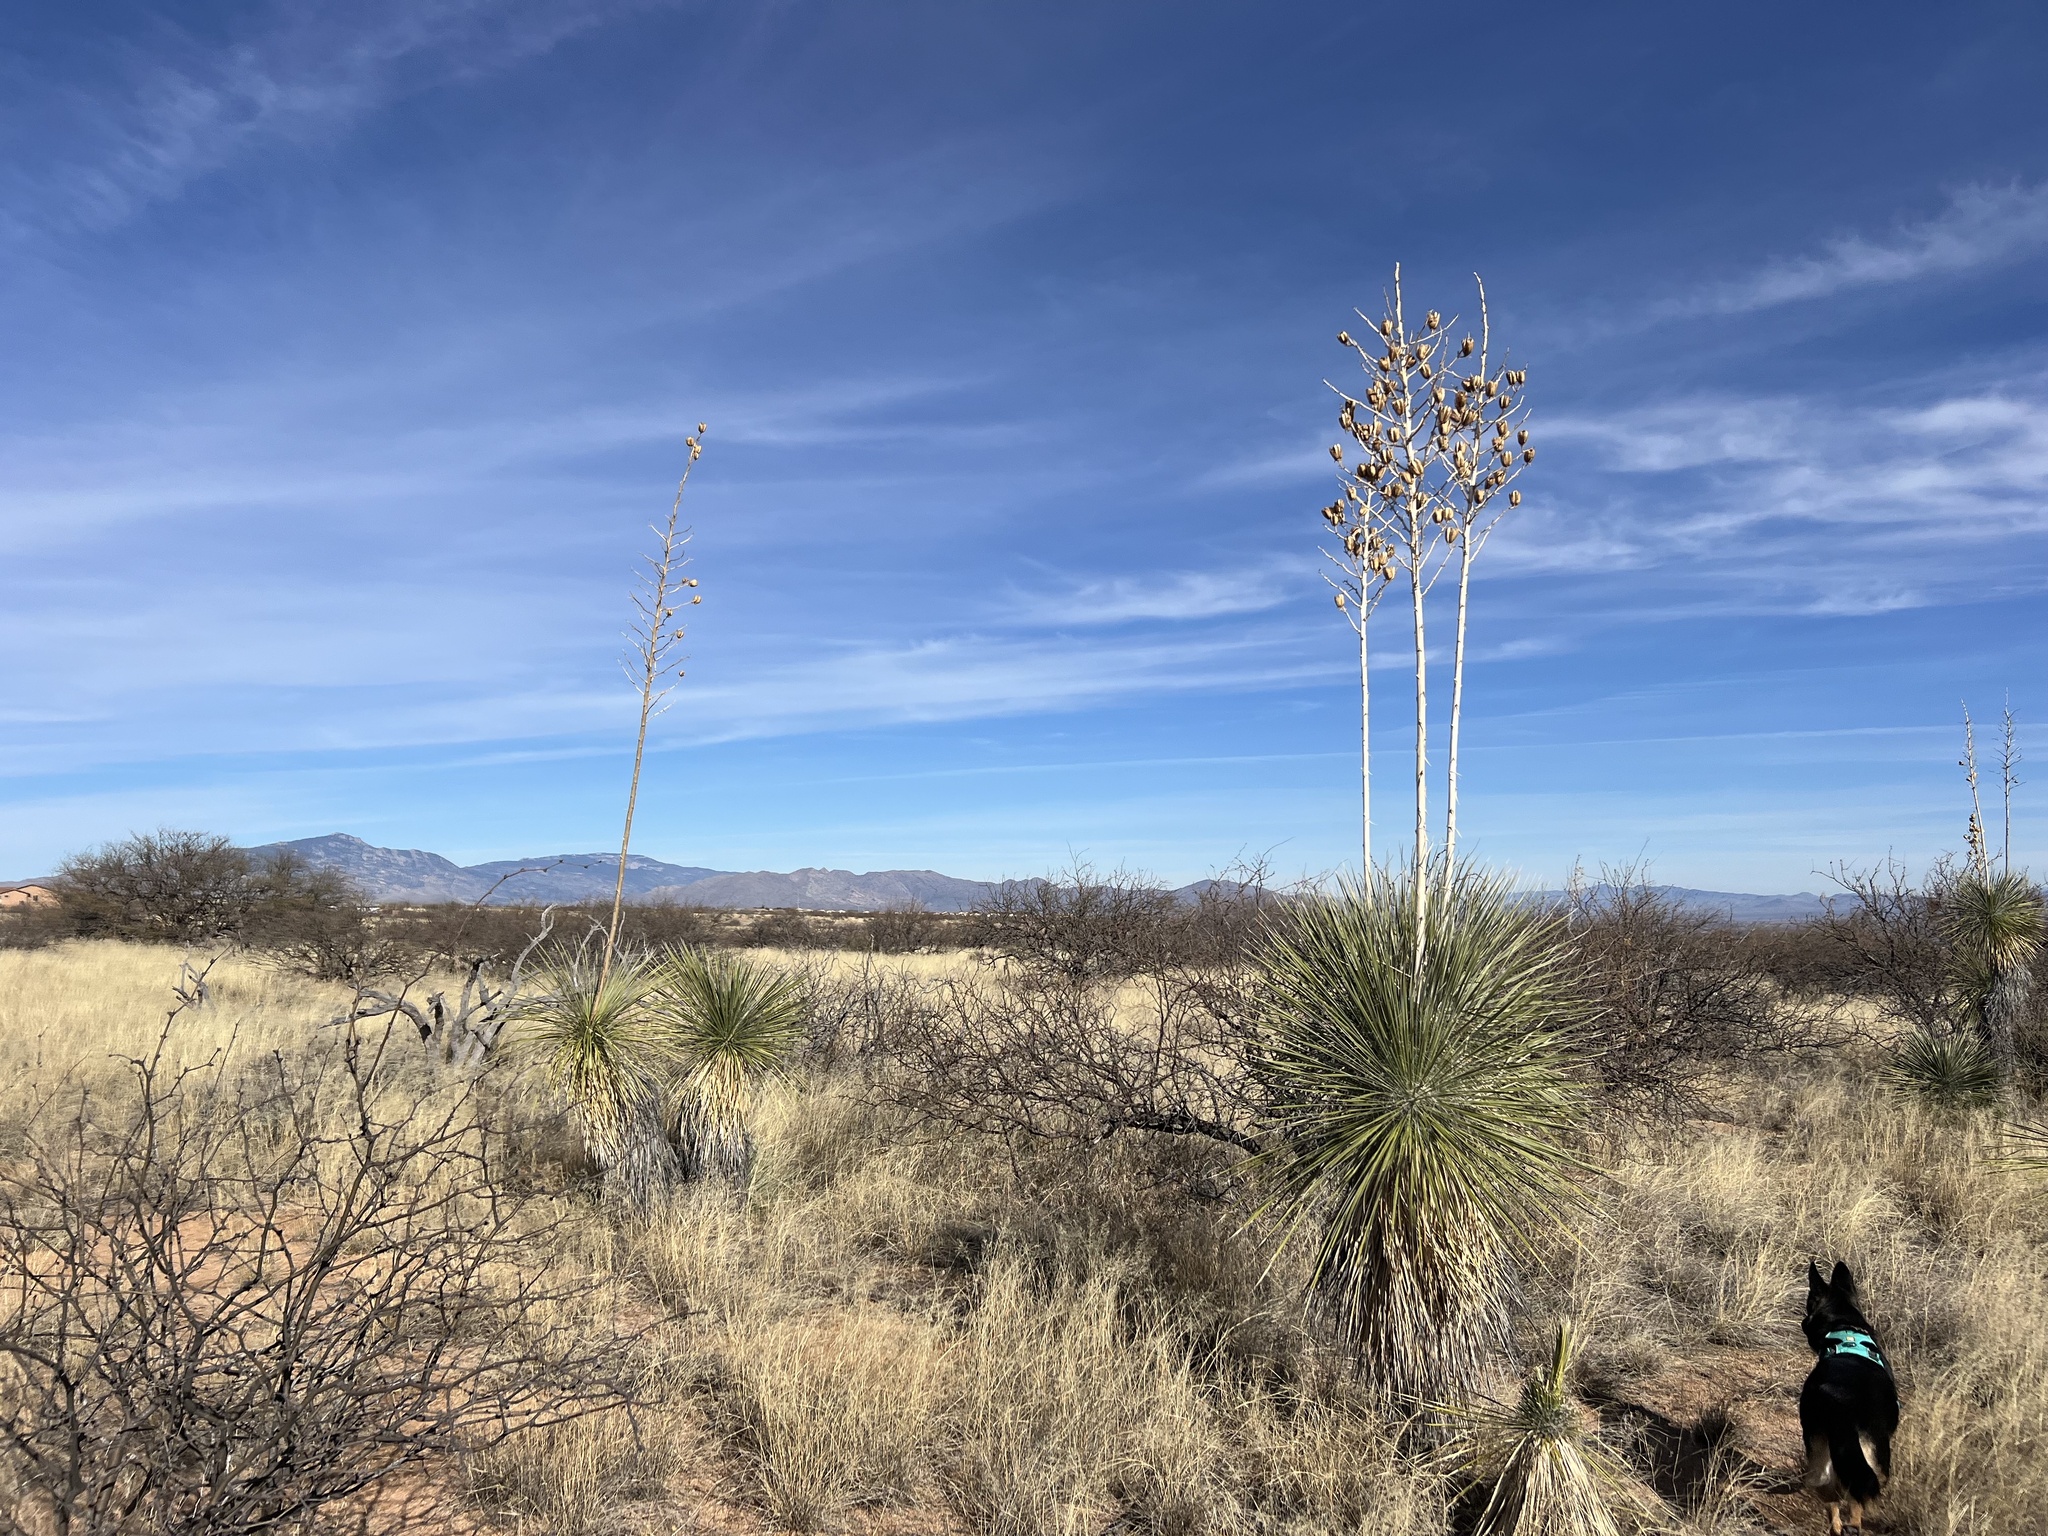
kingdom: Plantae
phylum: Tracheophyta
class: Liliopsida
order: Asparagales
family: Asparagaceae
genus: Yucca
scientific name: Yucca elata
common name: Palmella
